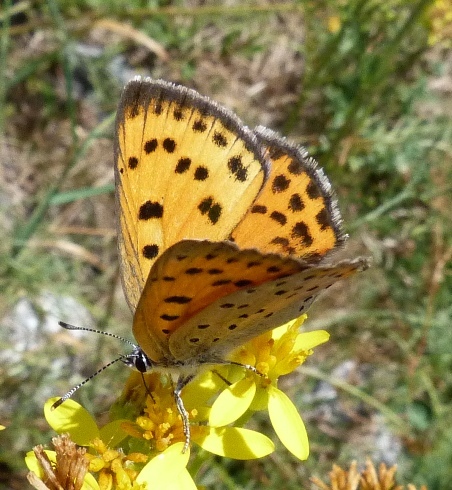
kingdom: Animalia
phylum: Arthropoda
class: Insecta
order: Lepidoptera
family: Lycaenidae
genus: Lycaena
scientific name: Lycaena alciphron
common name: Purple-shot copper
